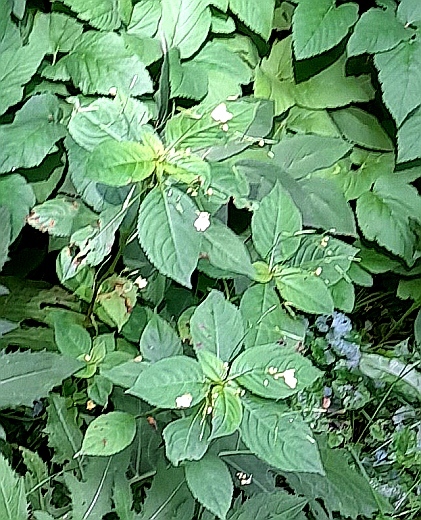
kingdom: Plantae
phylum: Tracheophyta
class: Magnoliopsida
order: Ericales
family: Balsaminaceae
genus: Impatiens
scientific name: Impatiens parviflora
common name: Small balsam
